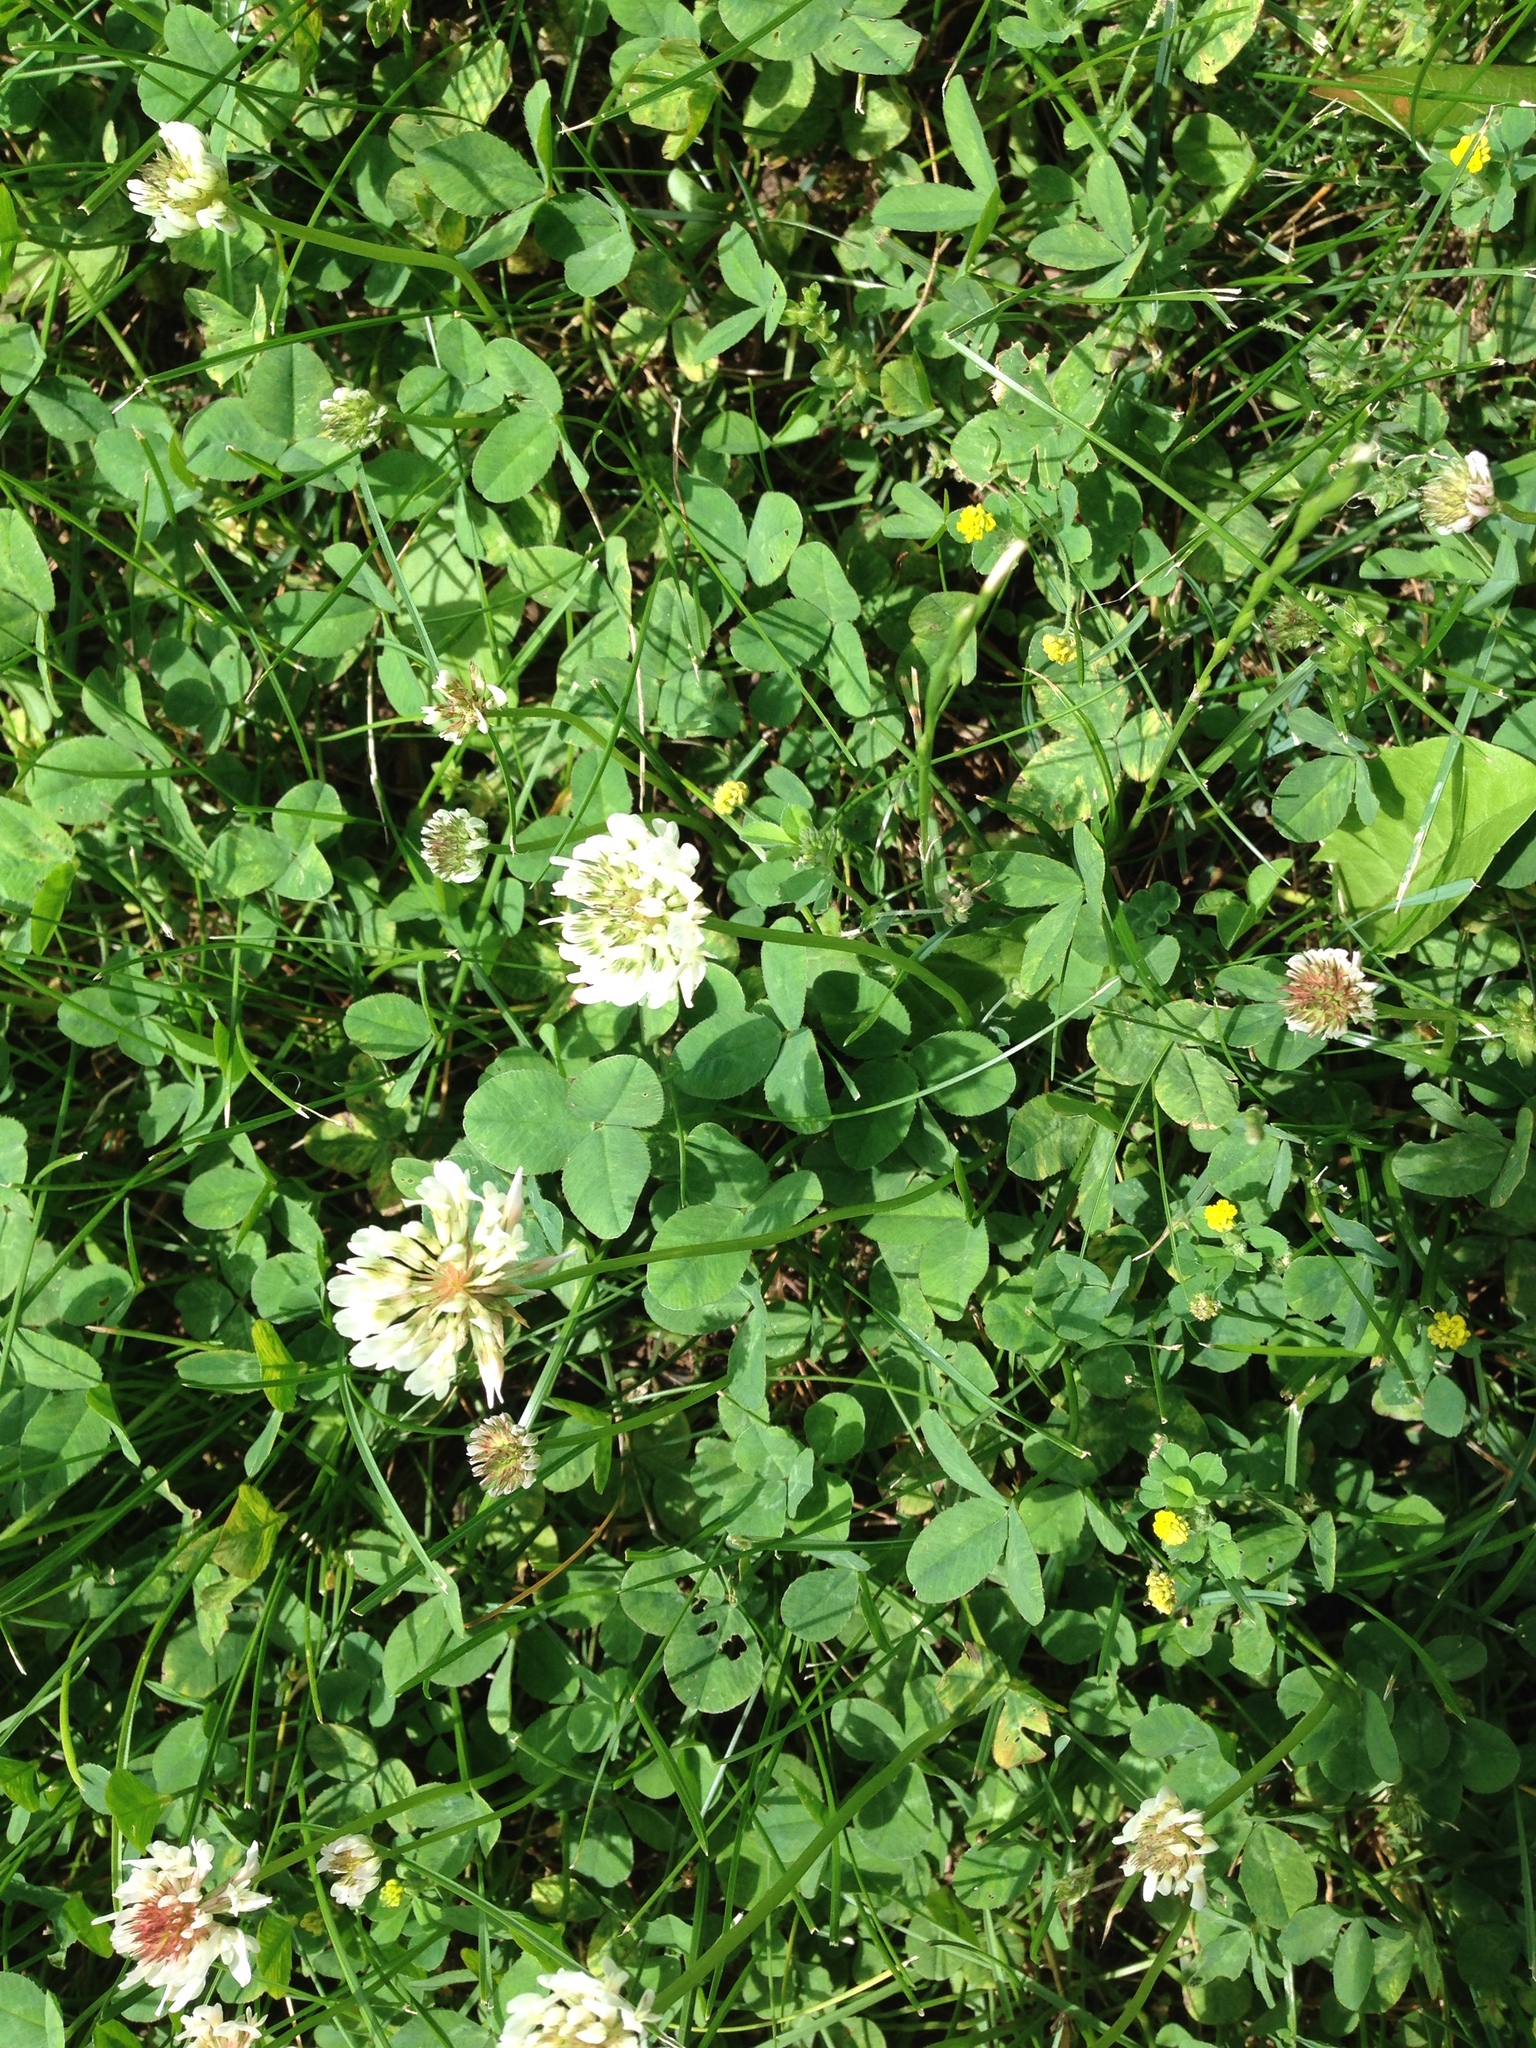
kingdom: Plantae
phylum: Tracheophyta
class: Magnoliopsida
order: Fabales
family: Fabaceae
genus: Trifolium
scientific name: Trifolium repens
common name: White clover
